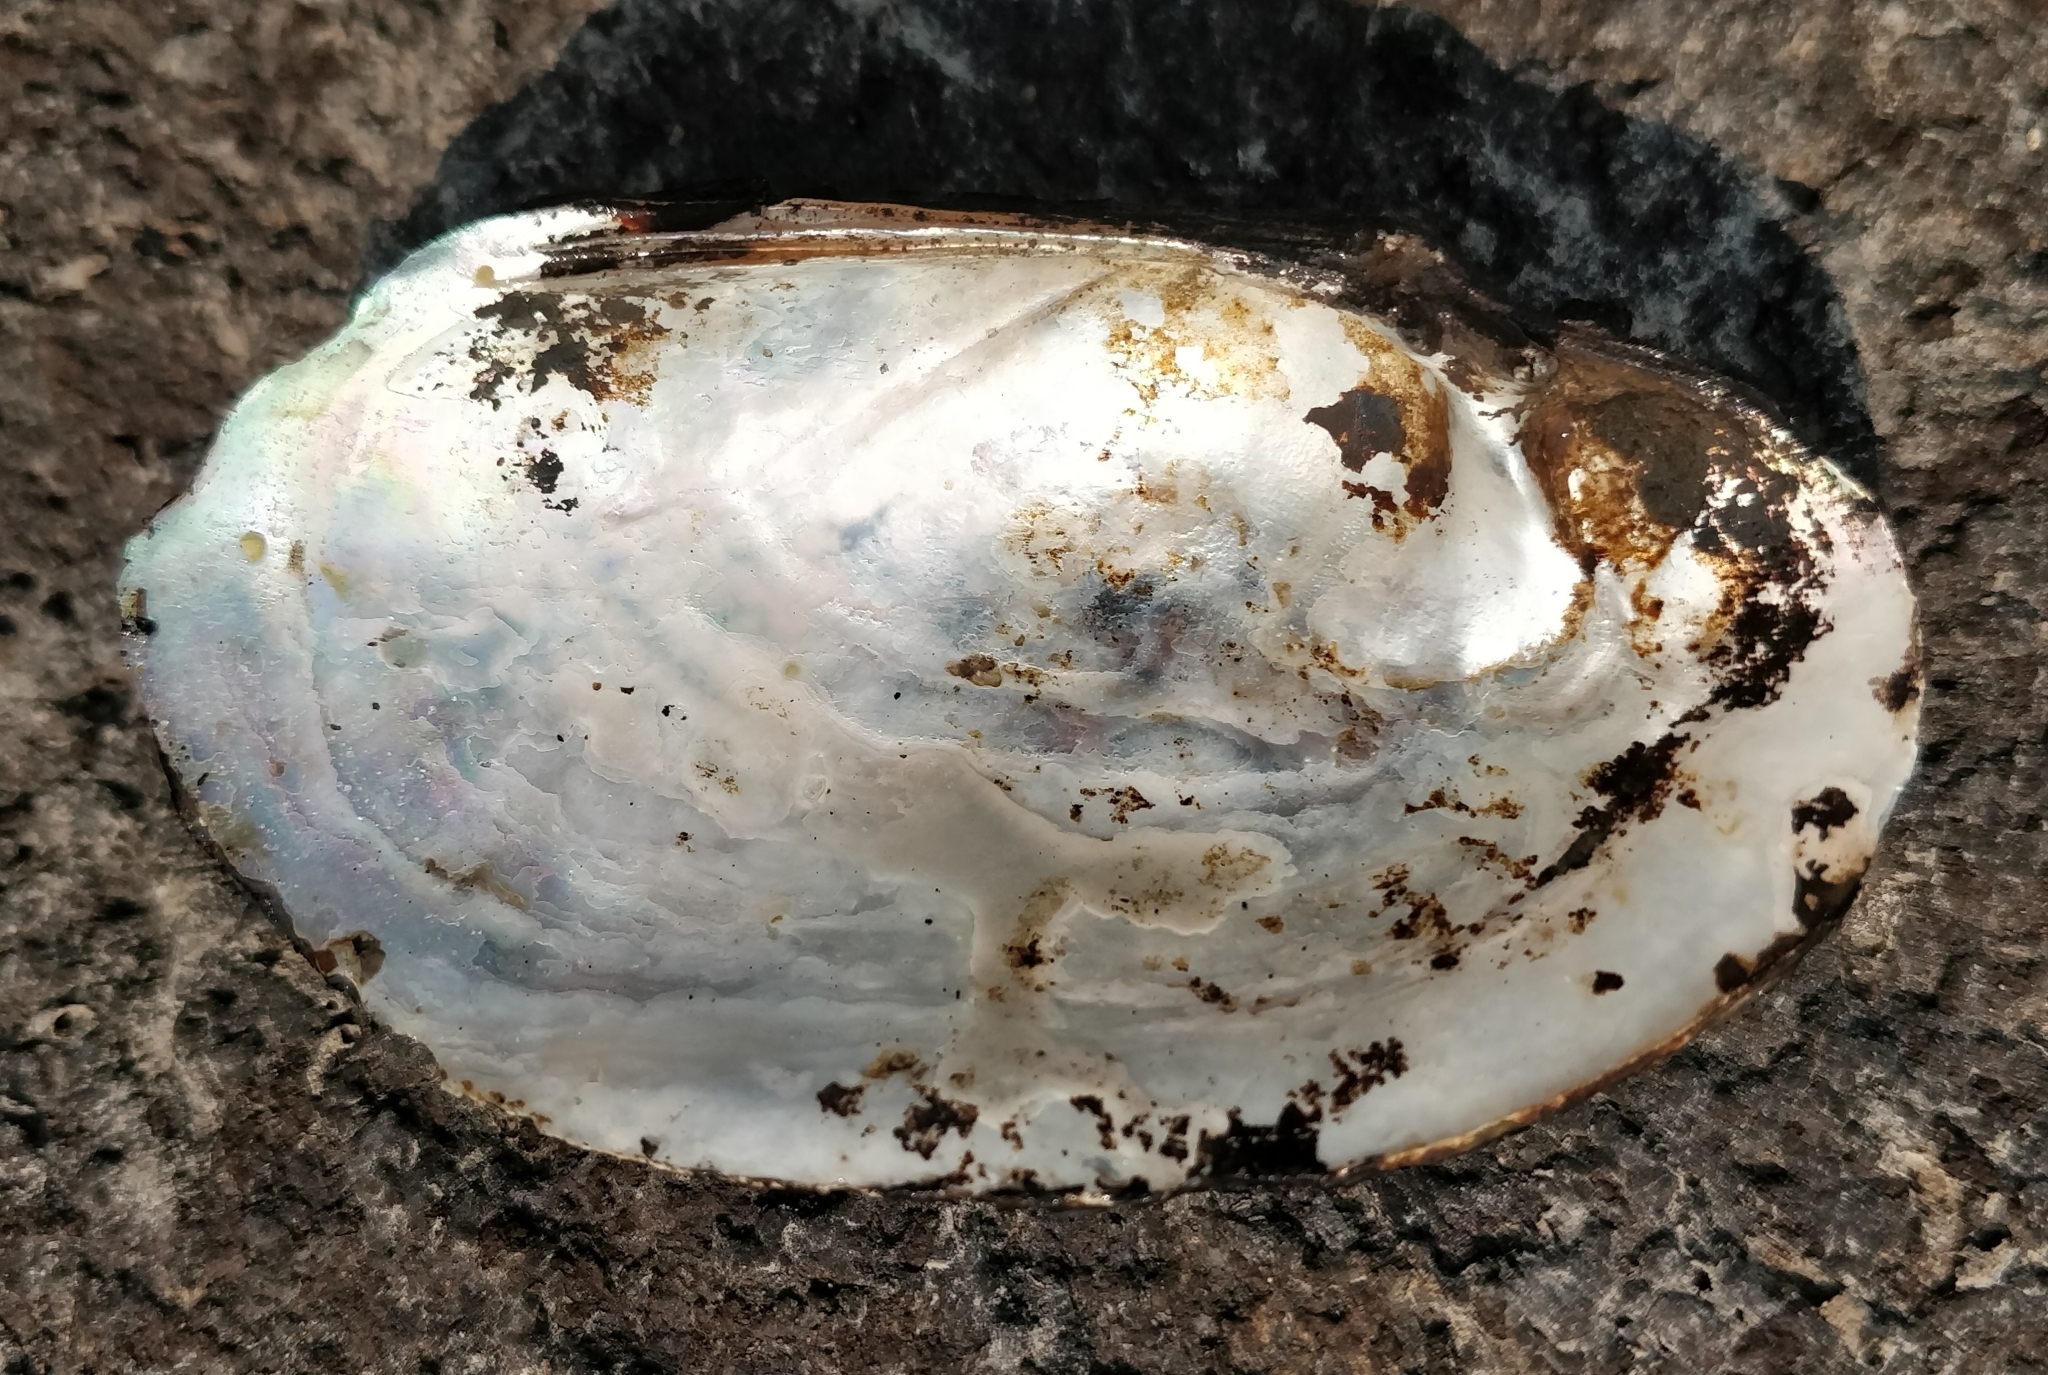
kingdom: Animalia
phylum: Mollusca
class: Bivalvia
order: Unionida
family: Unionidae
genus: Lampsilis
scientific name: Lampsilis siliquoidea
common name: Fatmucket
